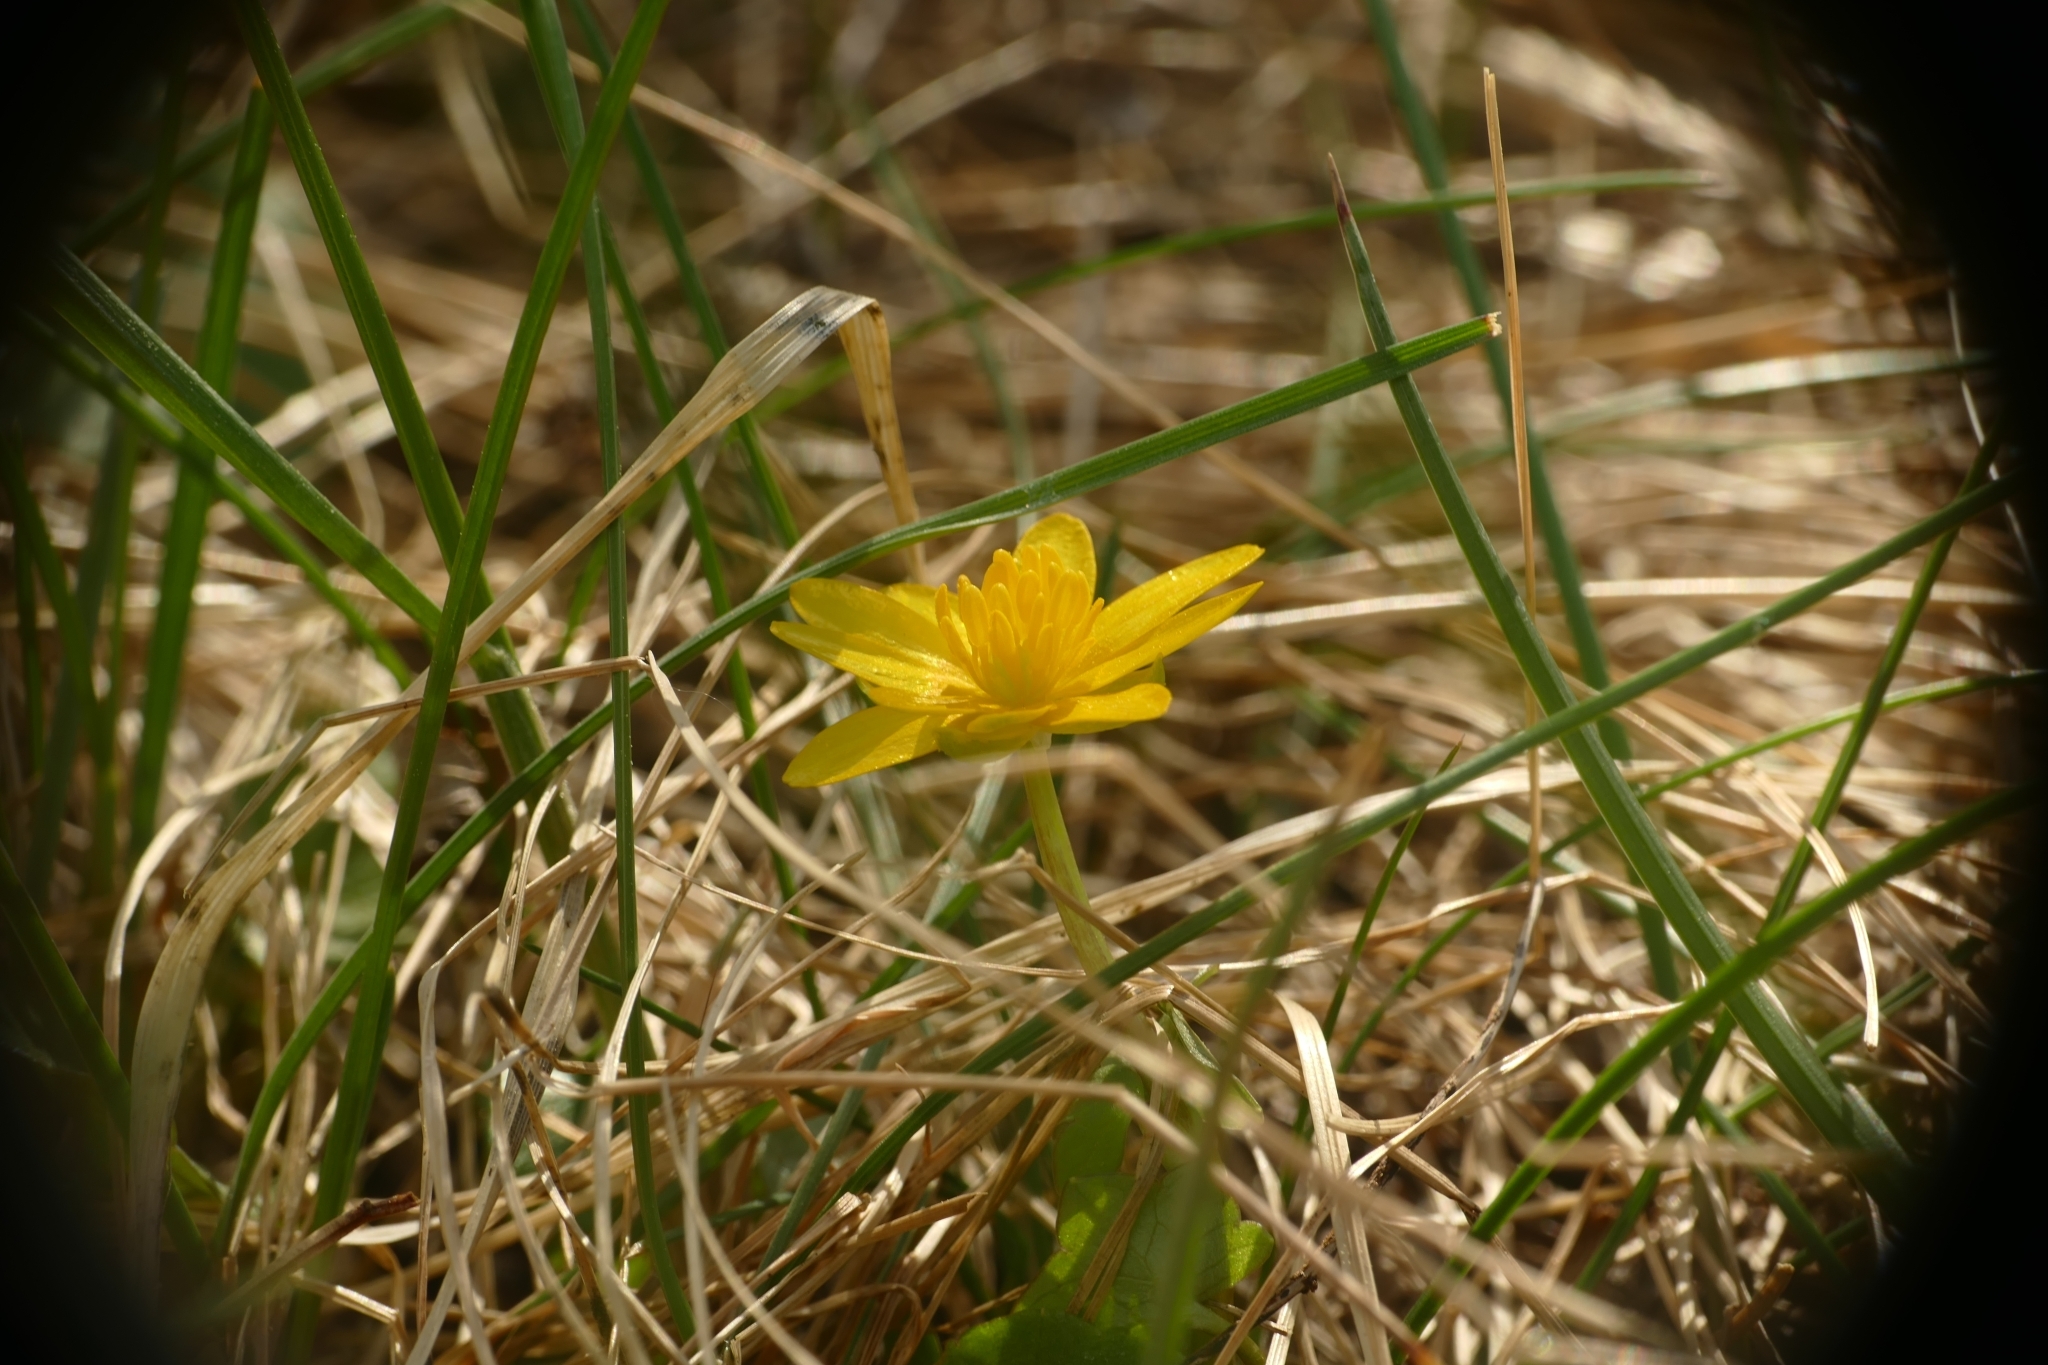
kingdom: Plantae
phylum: Tracheophyta
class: Magnoliopsida
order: Ranunculales
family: Ranunculaceae
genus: Ficaria
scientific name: Ficaria verna
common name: Lesser celandine
